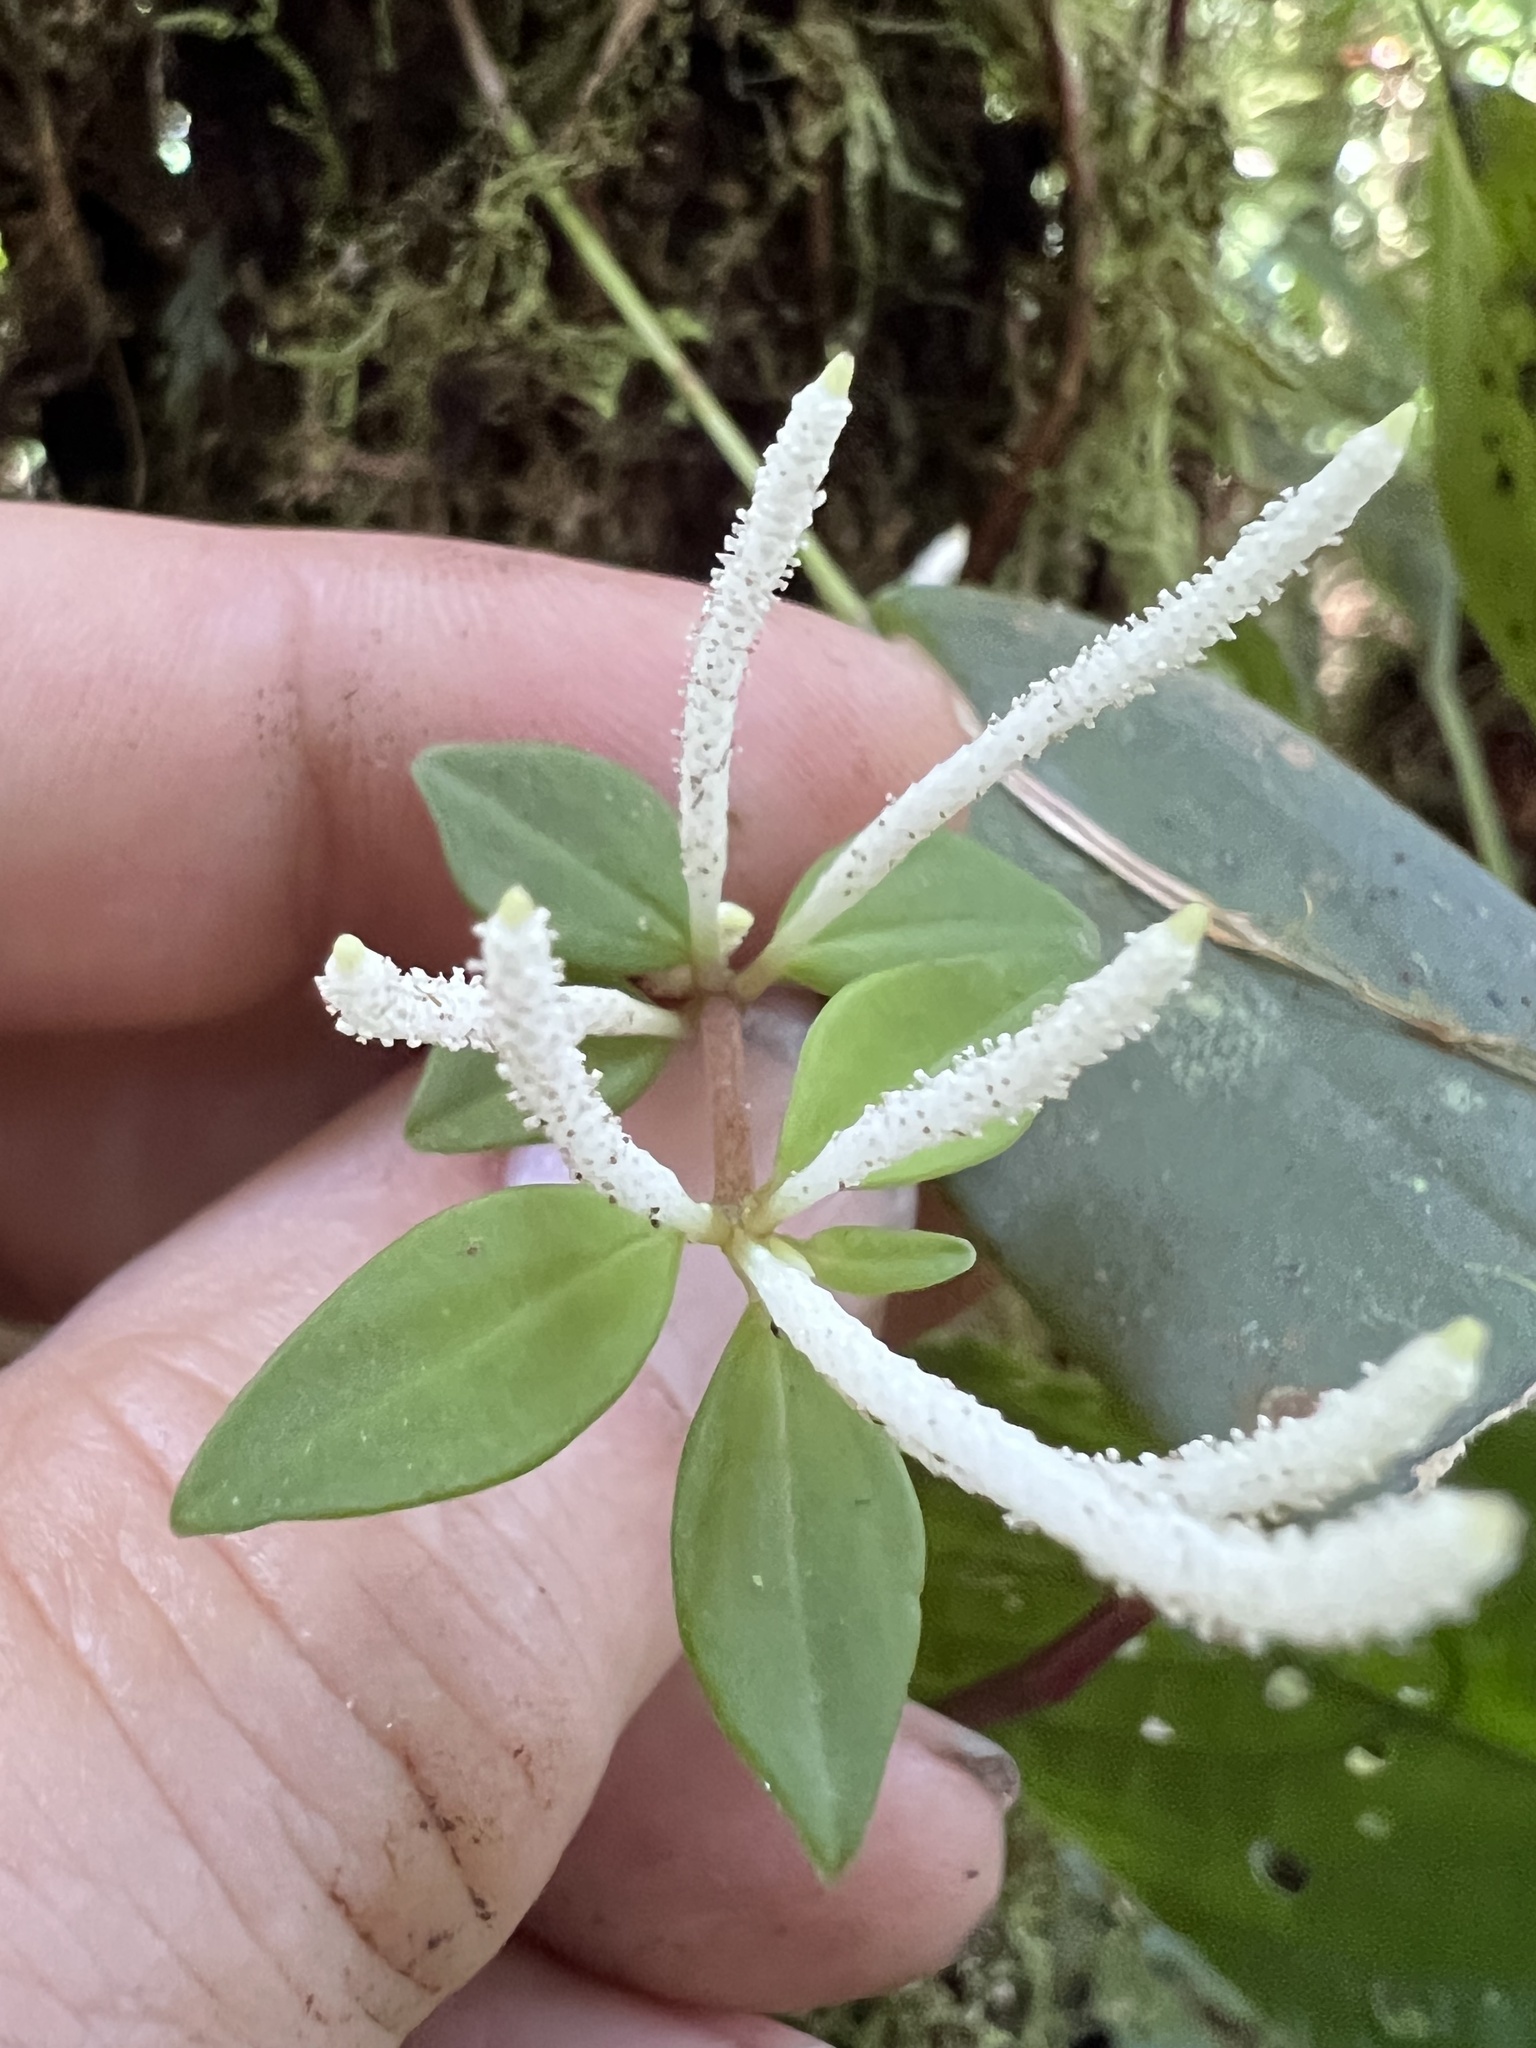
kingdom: Plantae
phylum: Tracheophyta
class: Magnoliopsida
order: Piperales
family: Piperaceae
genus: Peperomia
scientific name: Peperomia palmana
